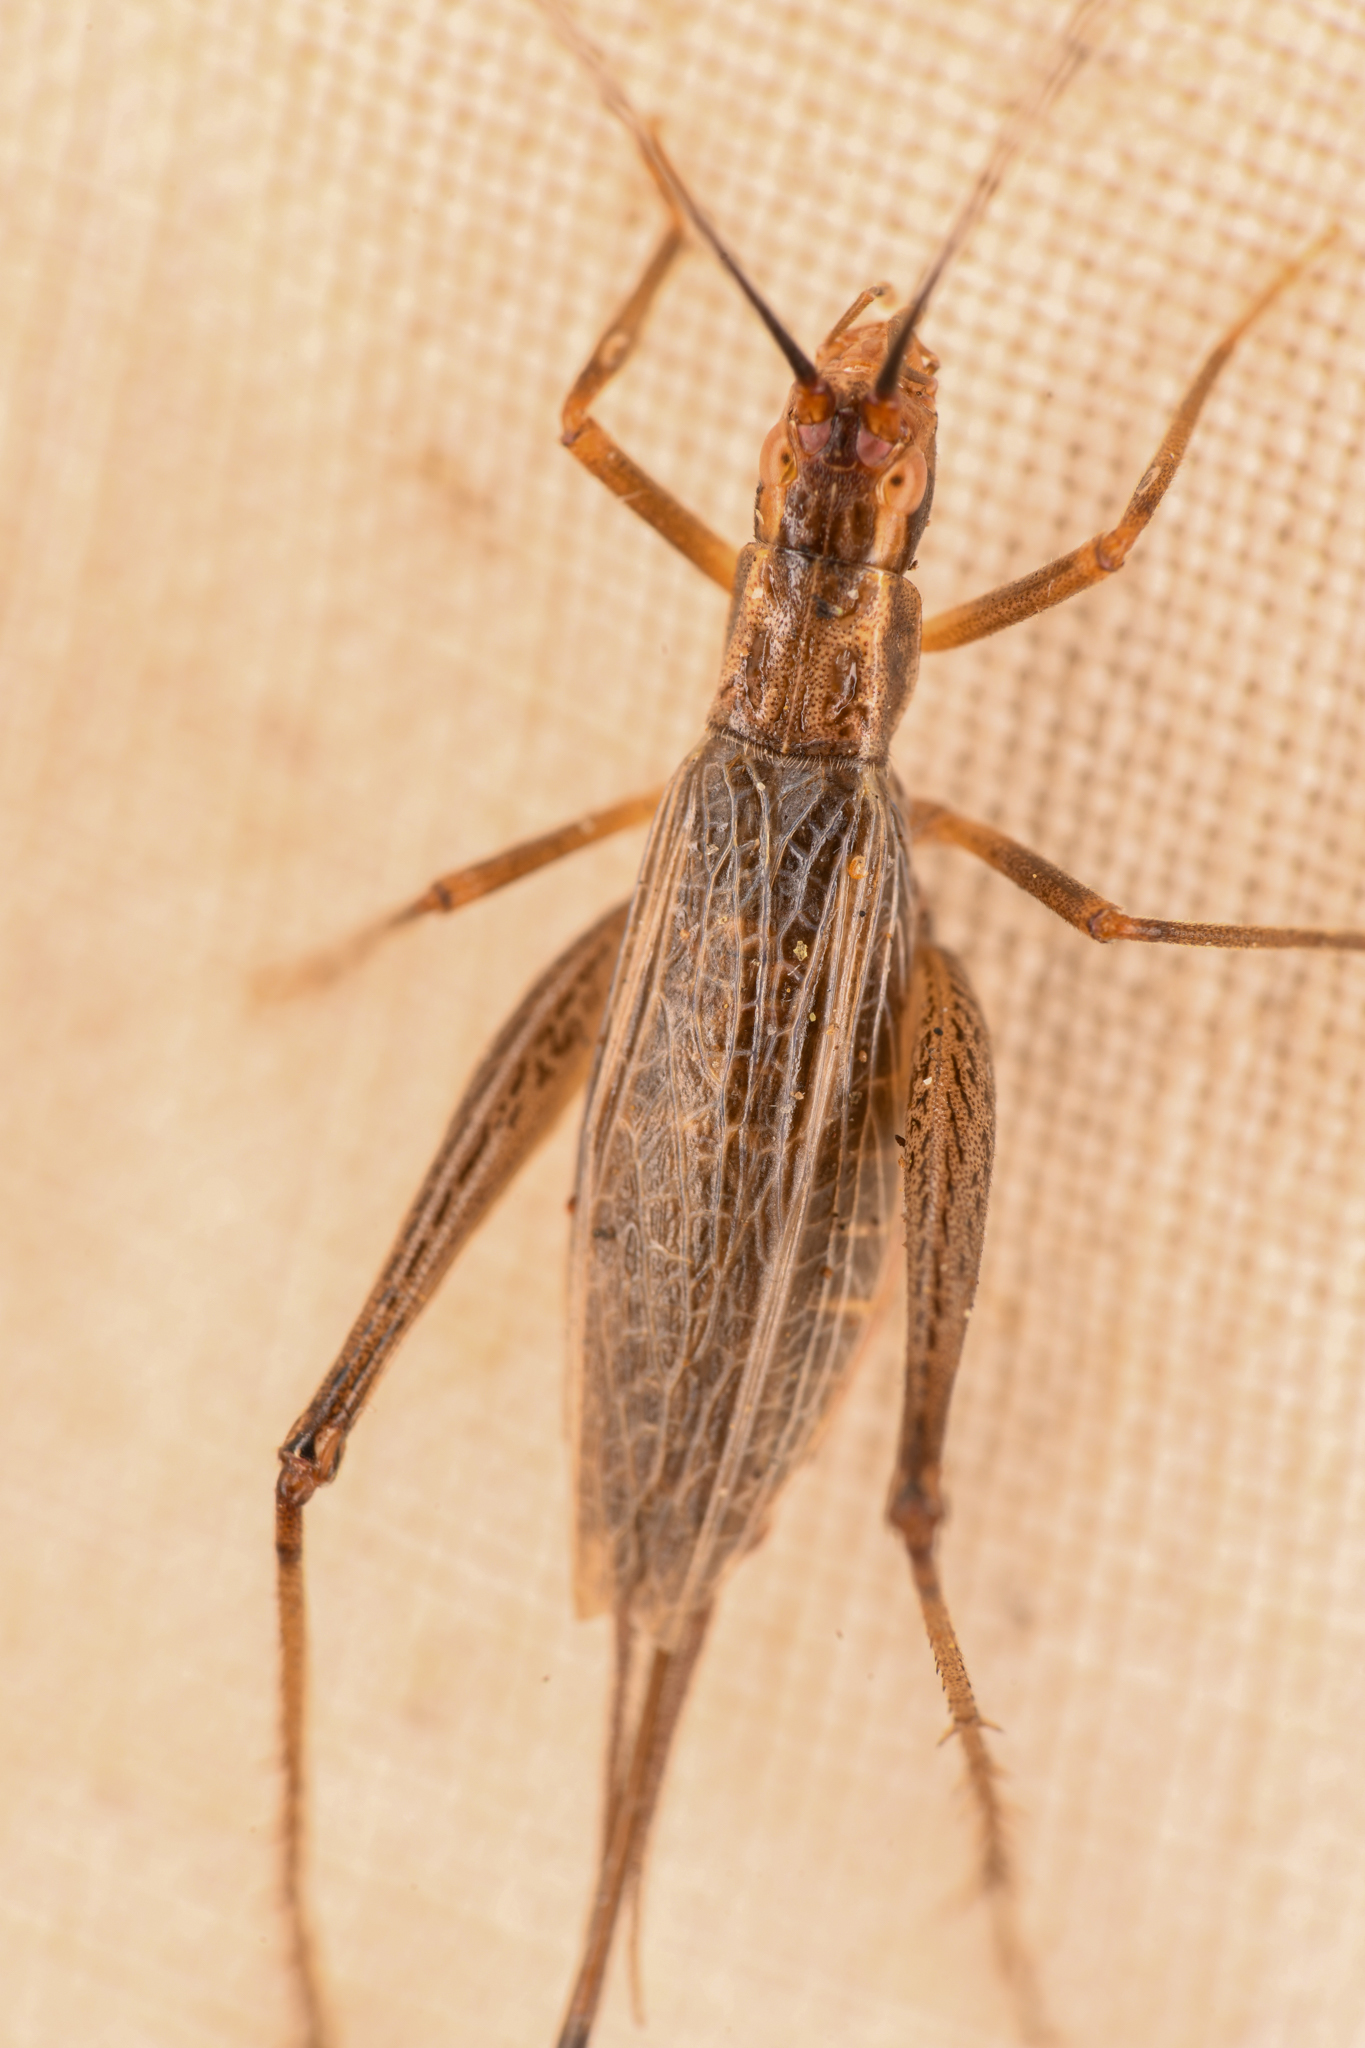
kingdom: Animalia
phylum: Arthropoda
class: Insecta
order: Orthoptera
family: Gryllidae
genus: Oecanthus
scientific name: Oecanthus californicus
